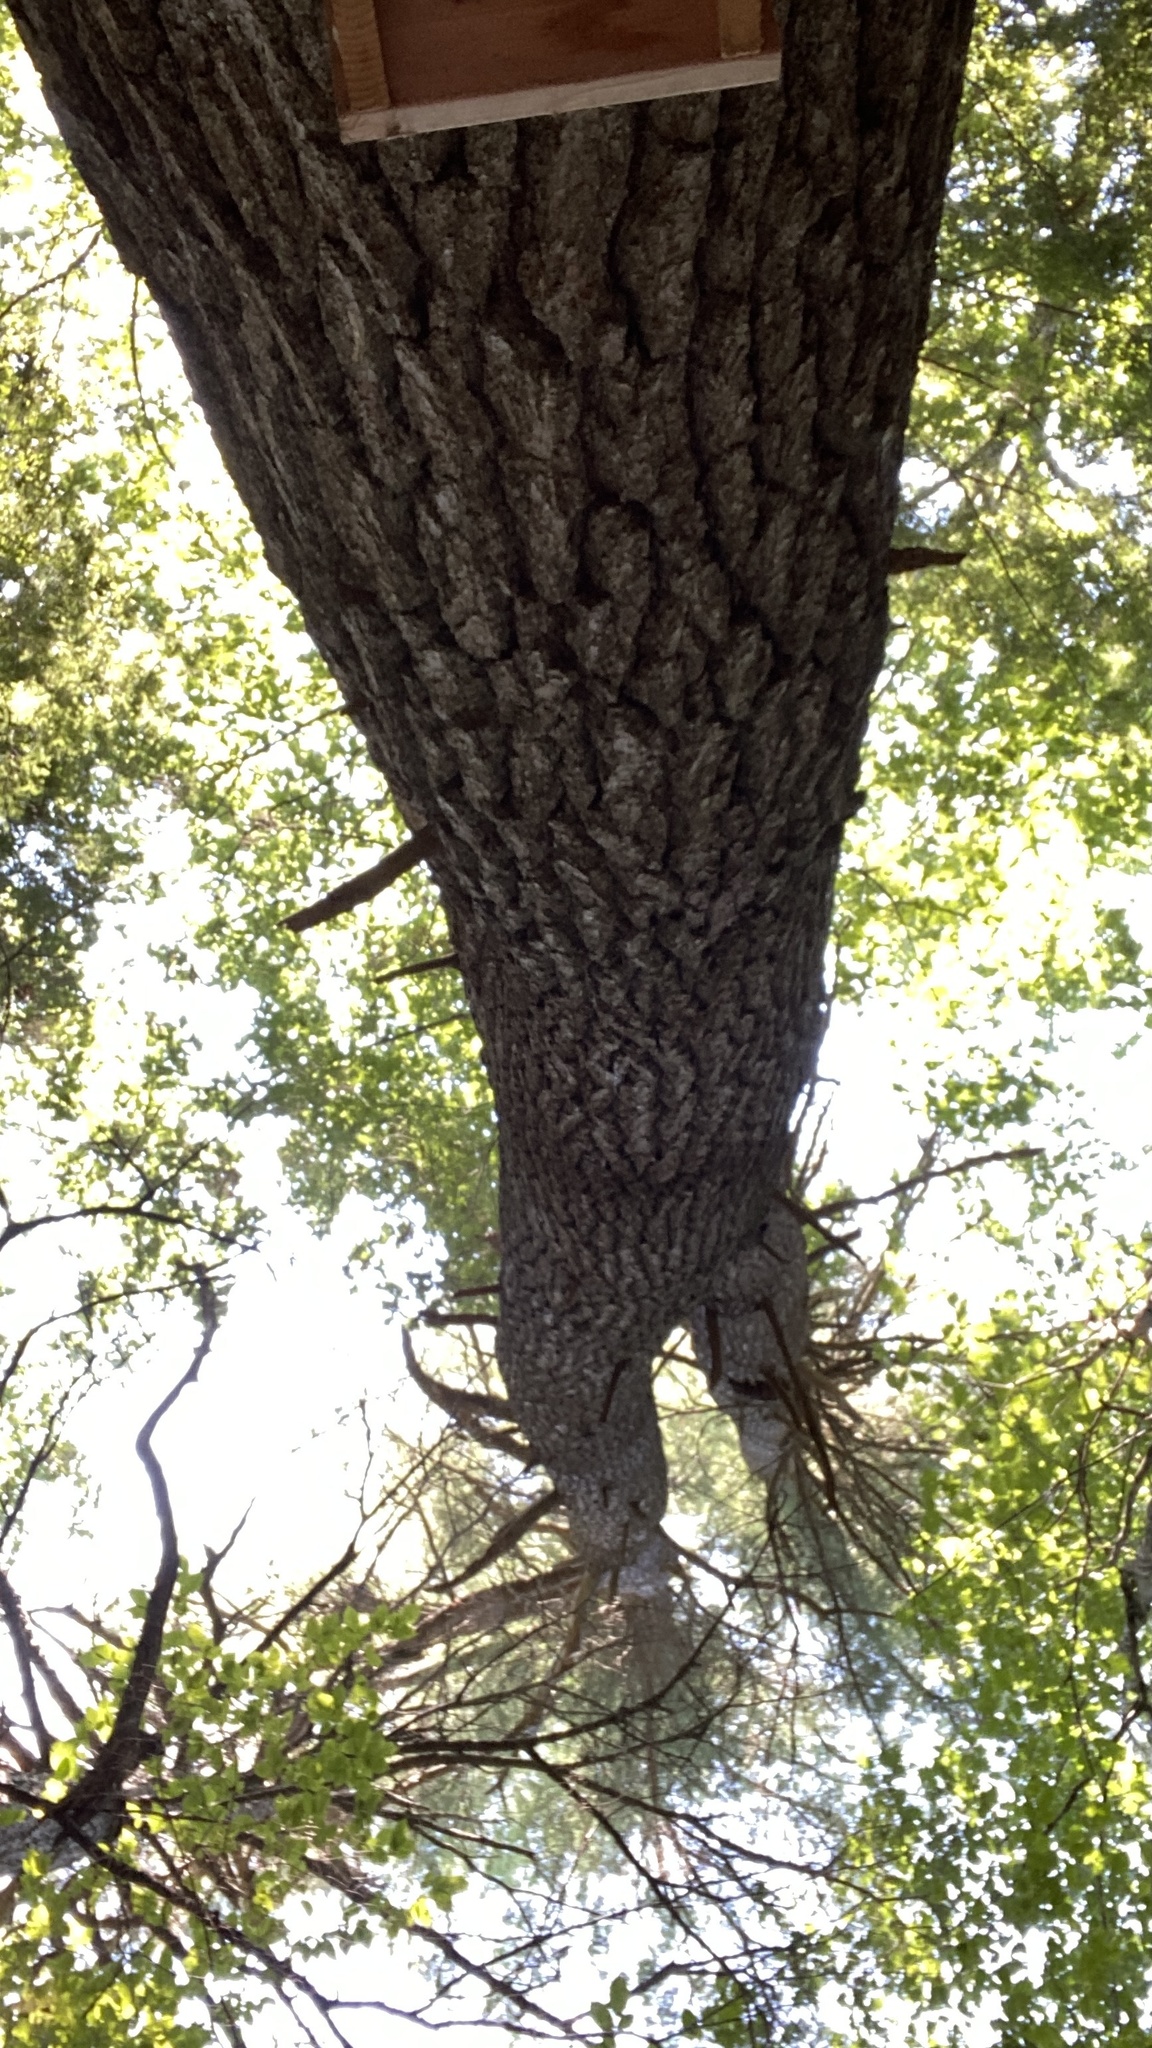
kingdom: Plantae
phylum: Tracheophyta
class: Pinopsida
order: Pinales
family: Pinaceae
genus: Pinus
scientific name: Pinus strobus
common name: Weymouth pine
